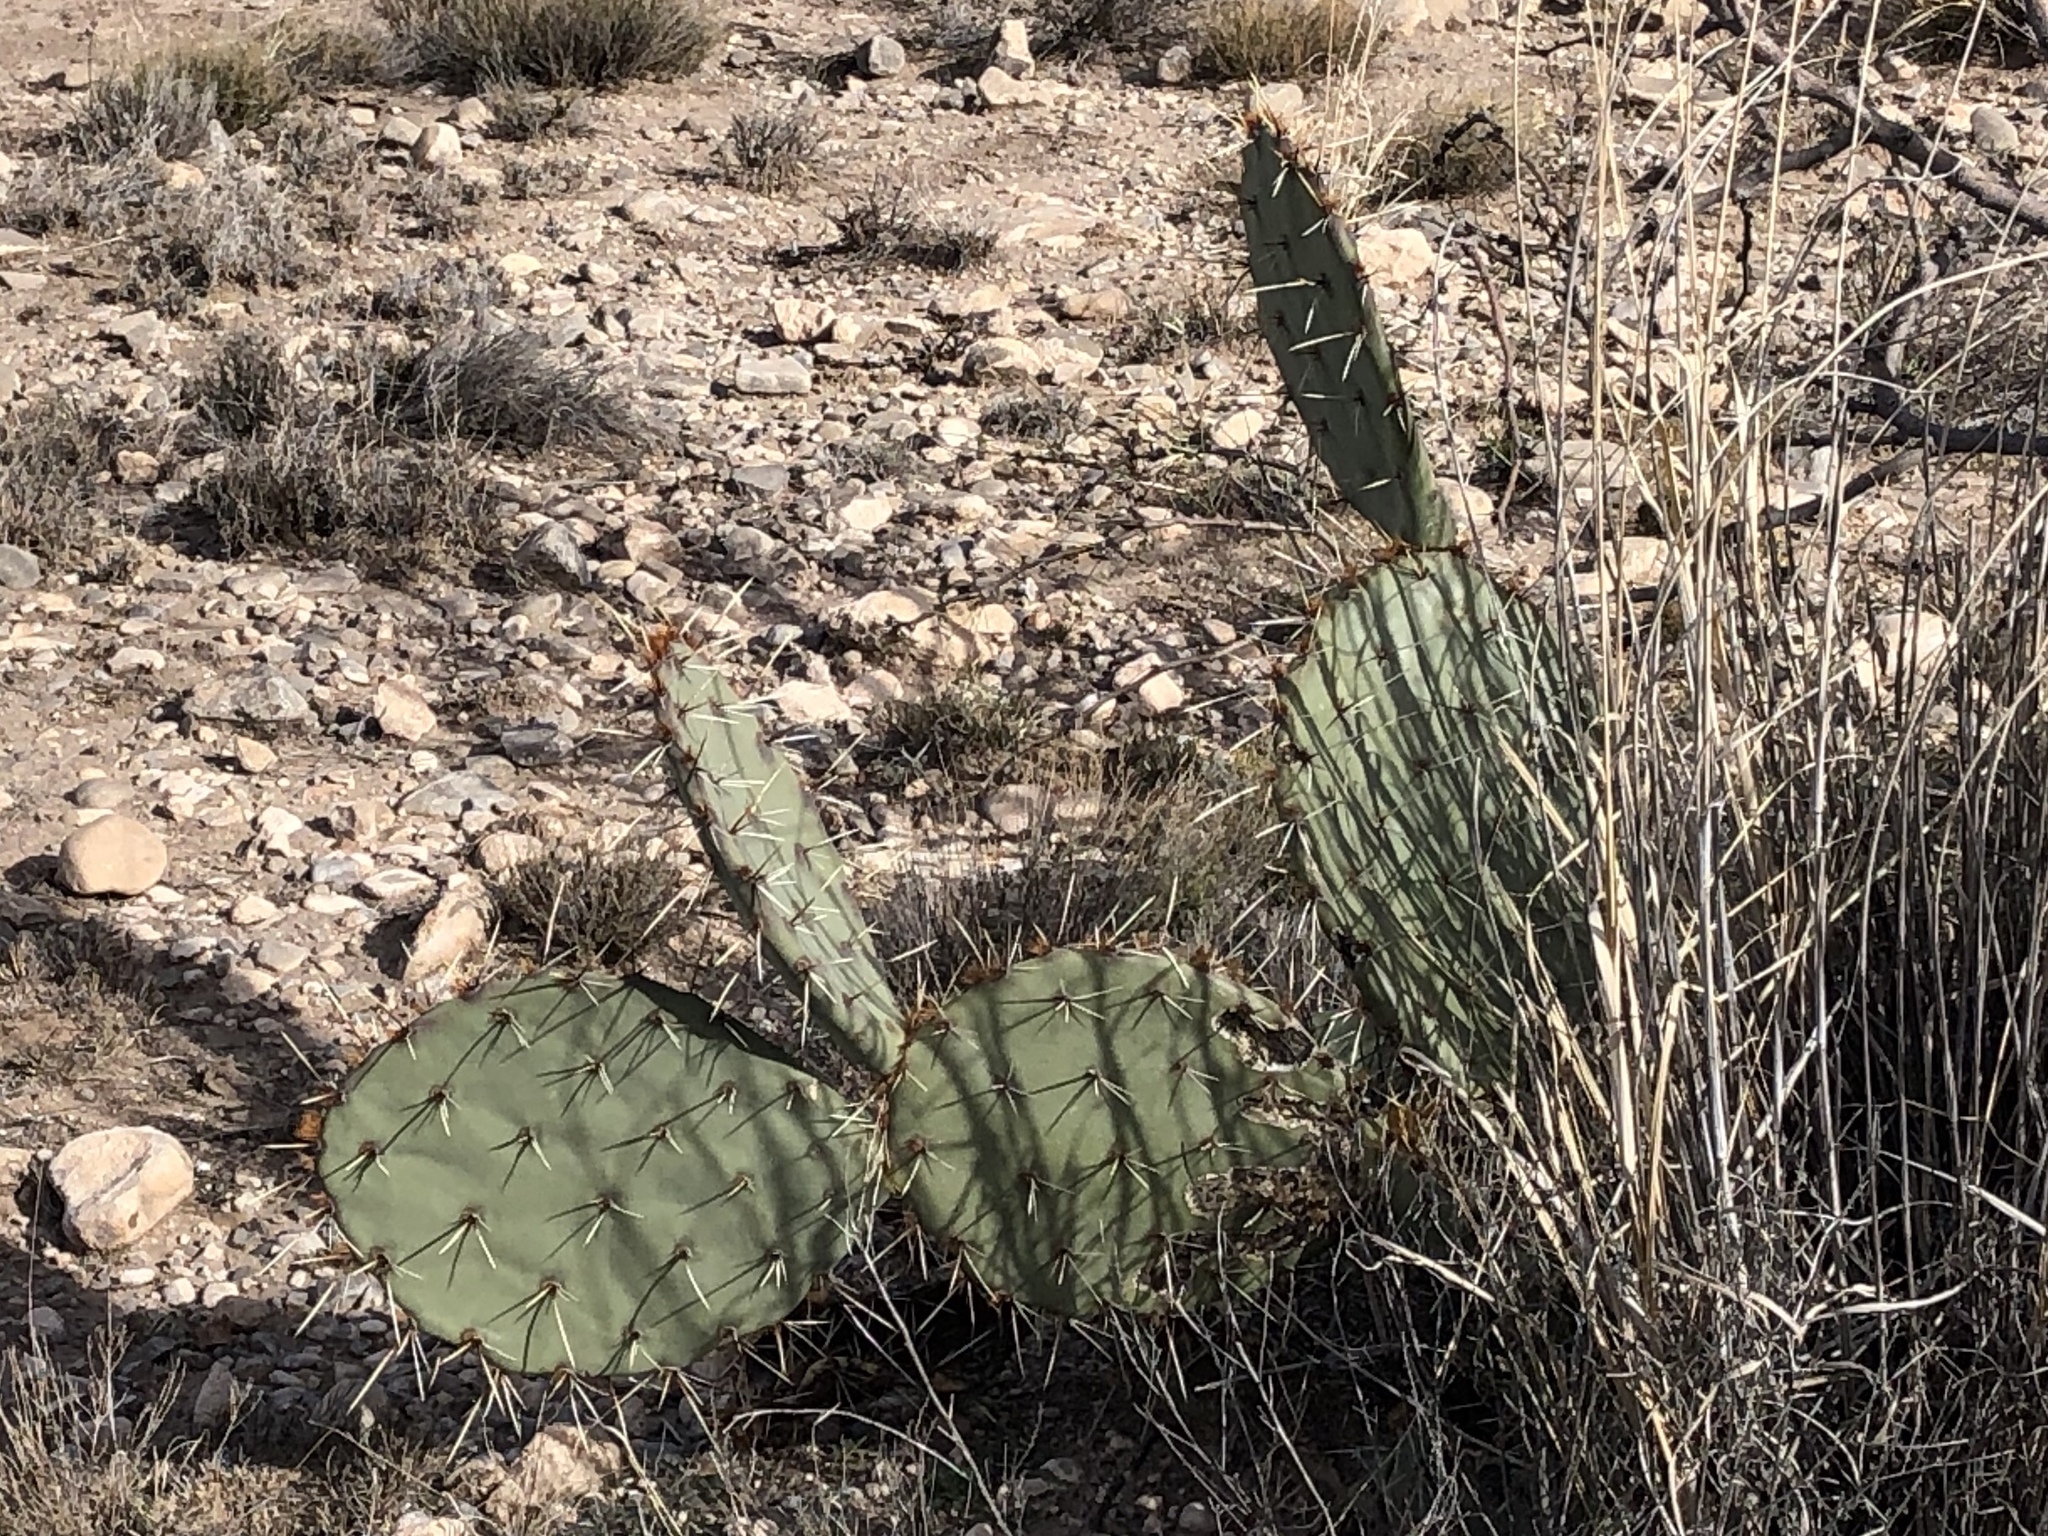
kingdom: Plantae
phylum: Tracheophyta
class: Magnoliopsida
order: Caryophyllales
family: Cactaceae
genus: Opuntia
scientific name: Opuntia engelmannii
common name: Cactus-apple
